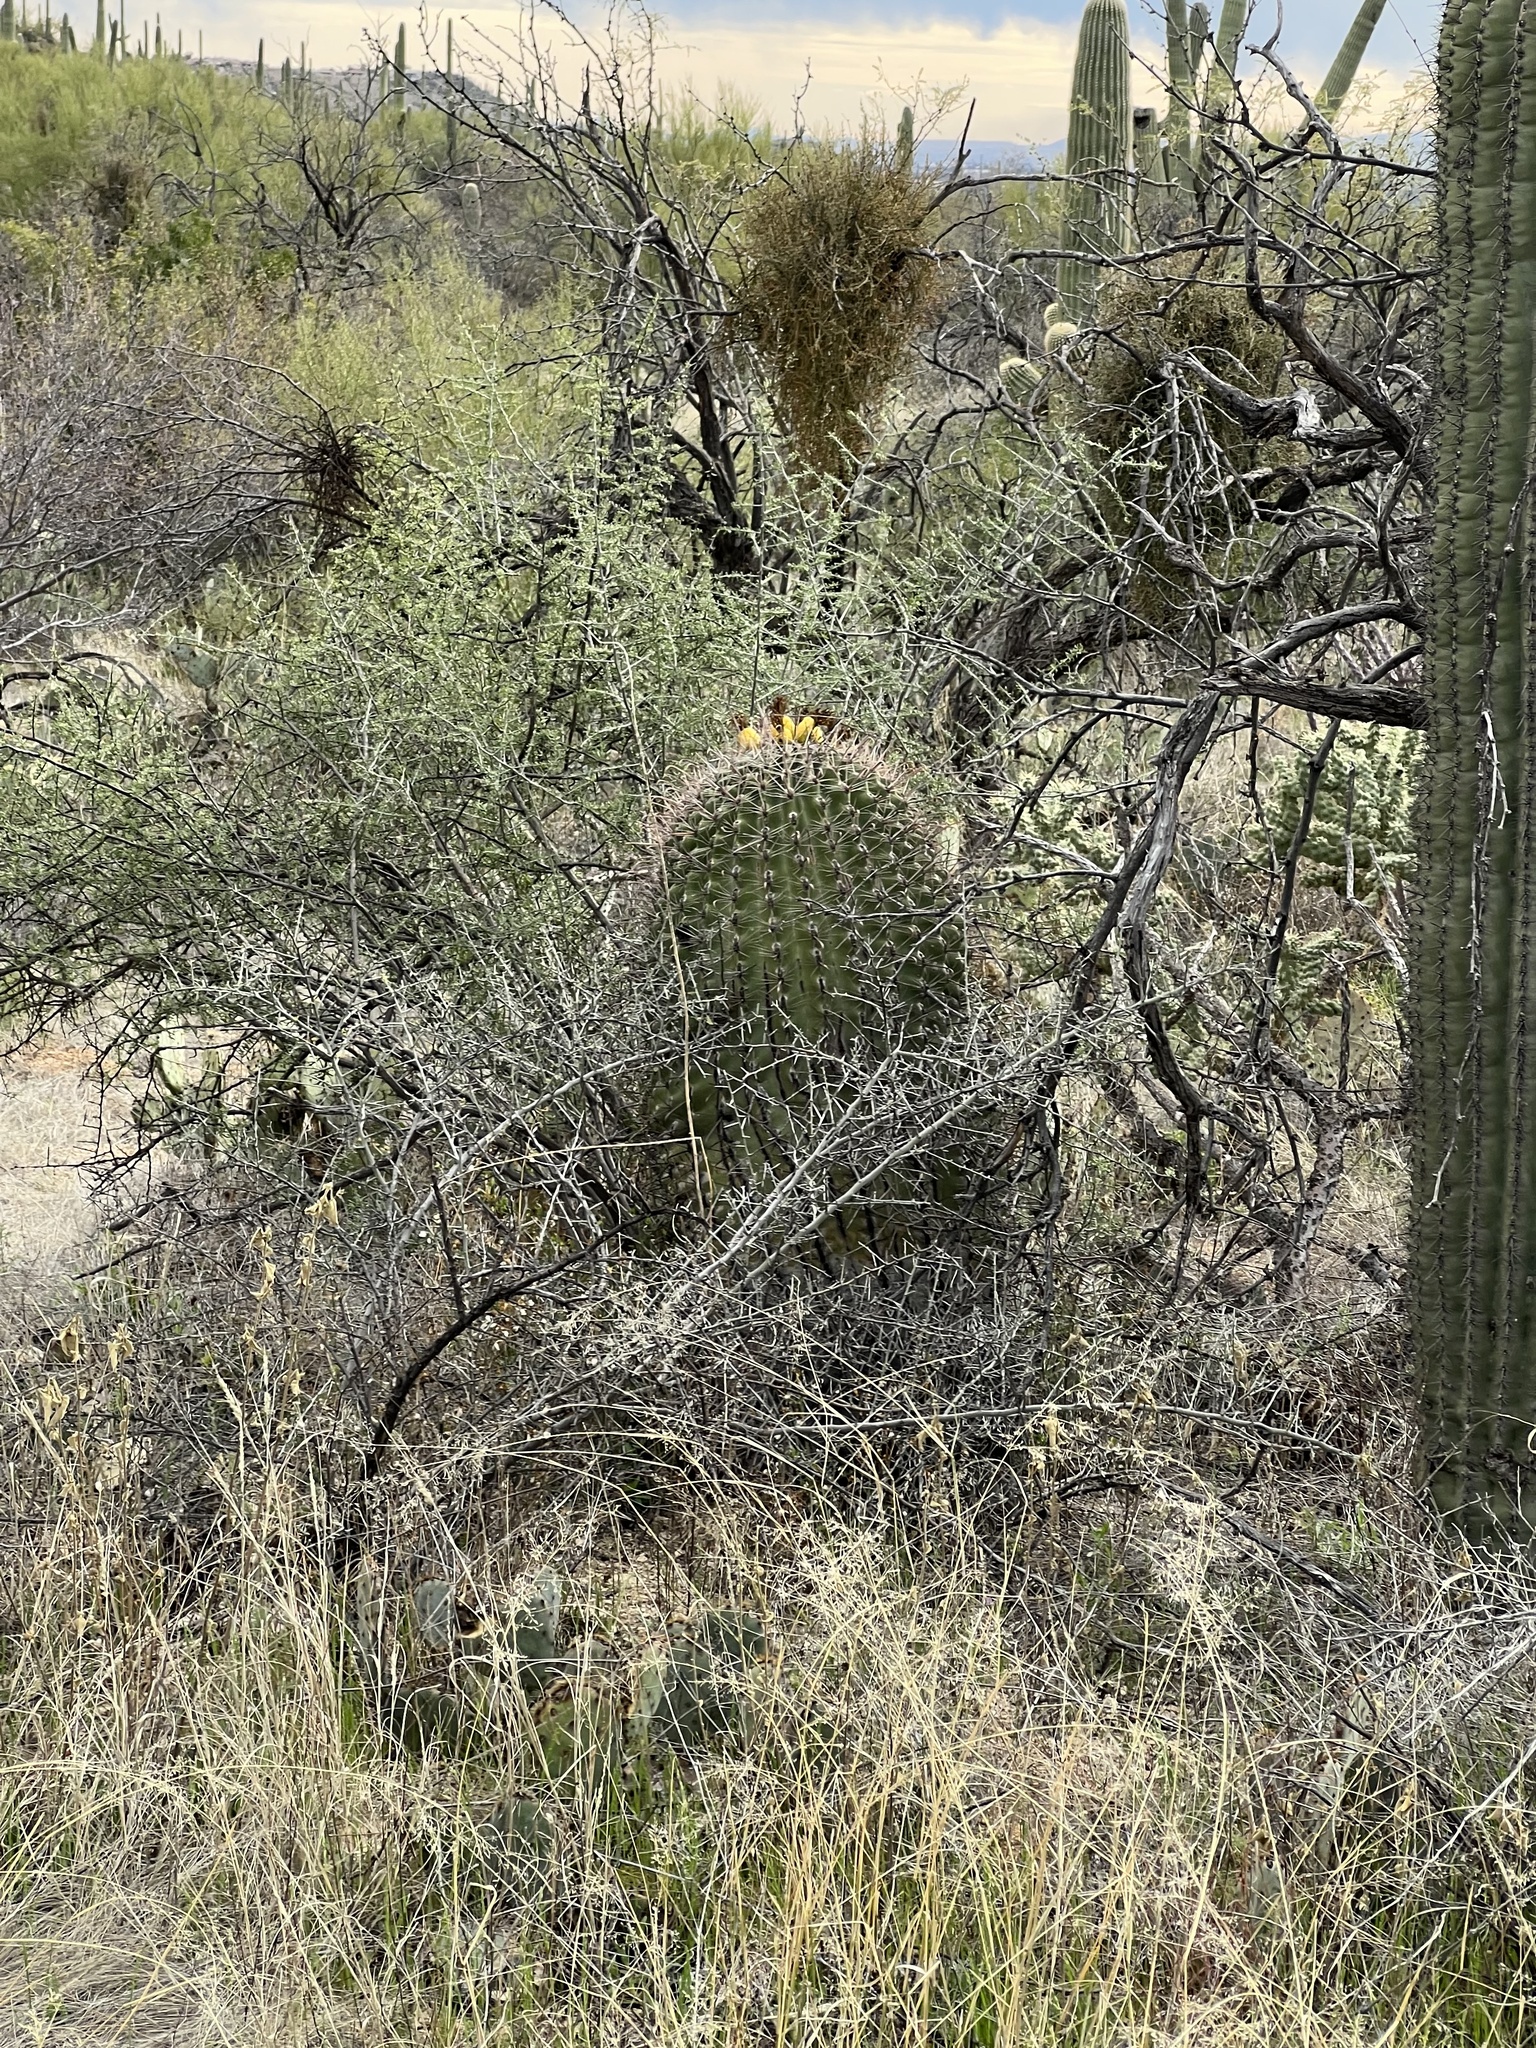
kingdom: Plantae
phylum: Tracheophyta
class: Magnoliopsida
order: Caryophyllales
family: Cactaceae
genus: Ferocactus
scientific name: Ferocactus wislizeni
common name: Candy barrel cactus
